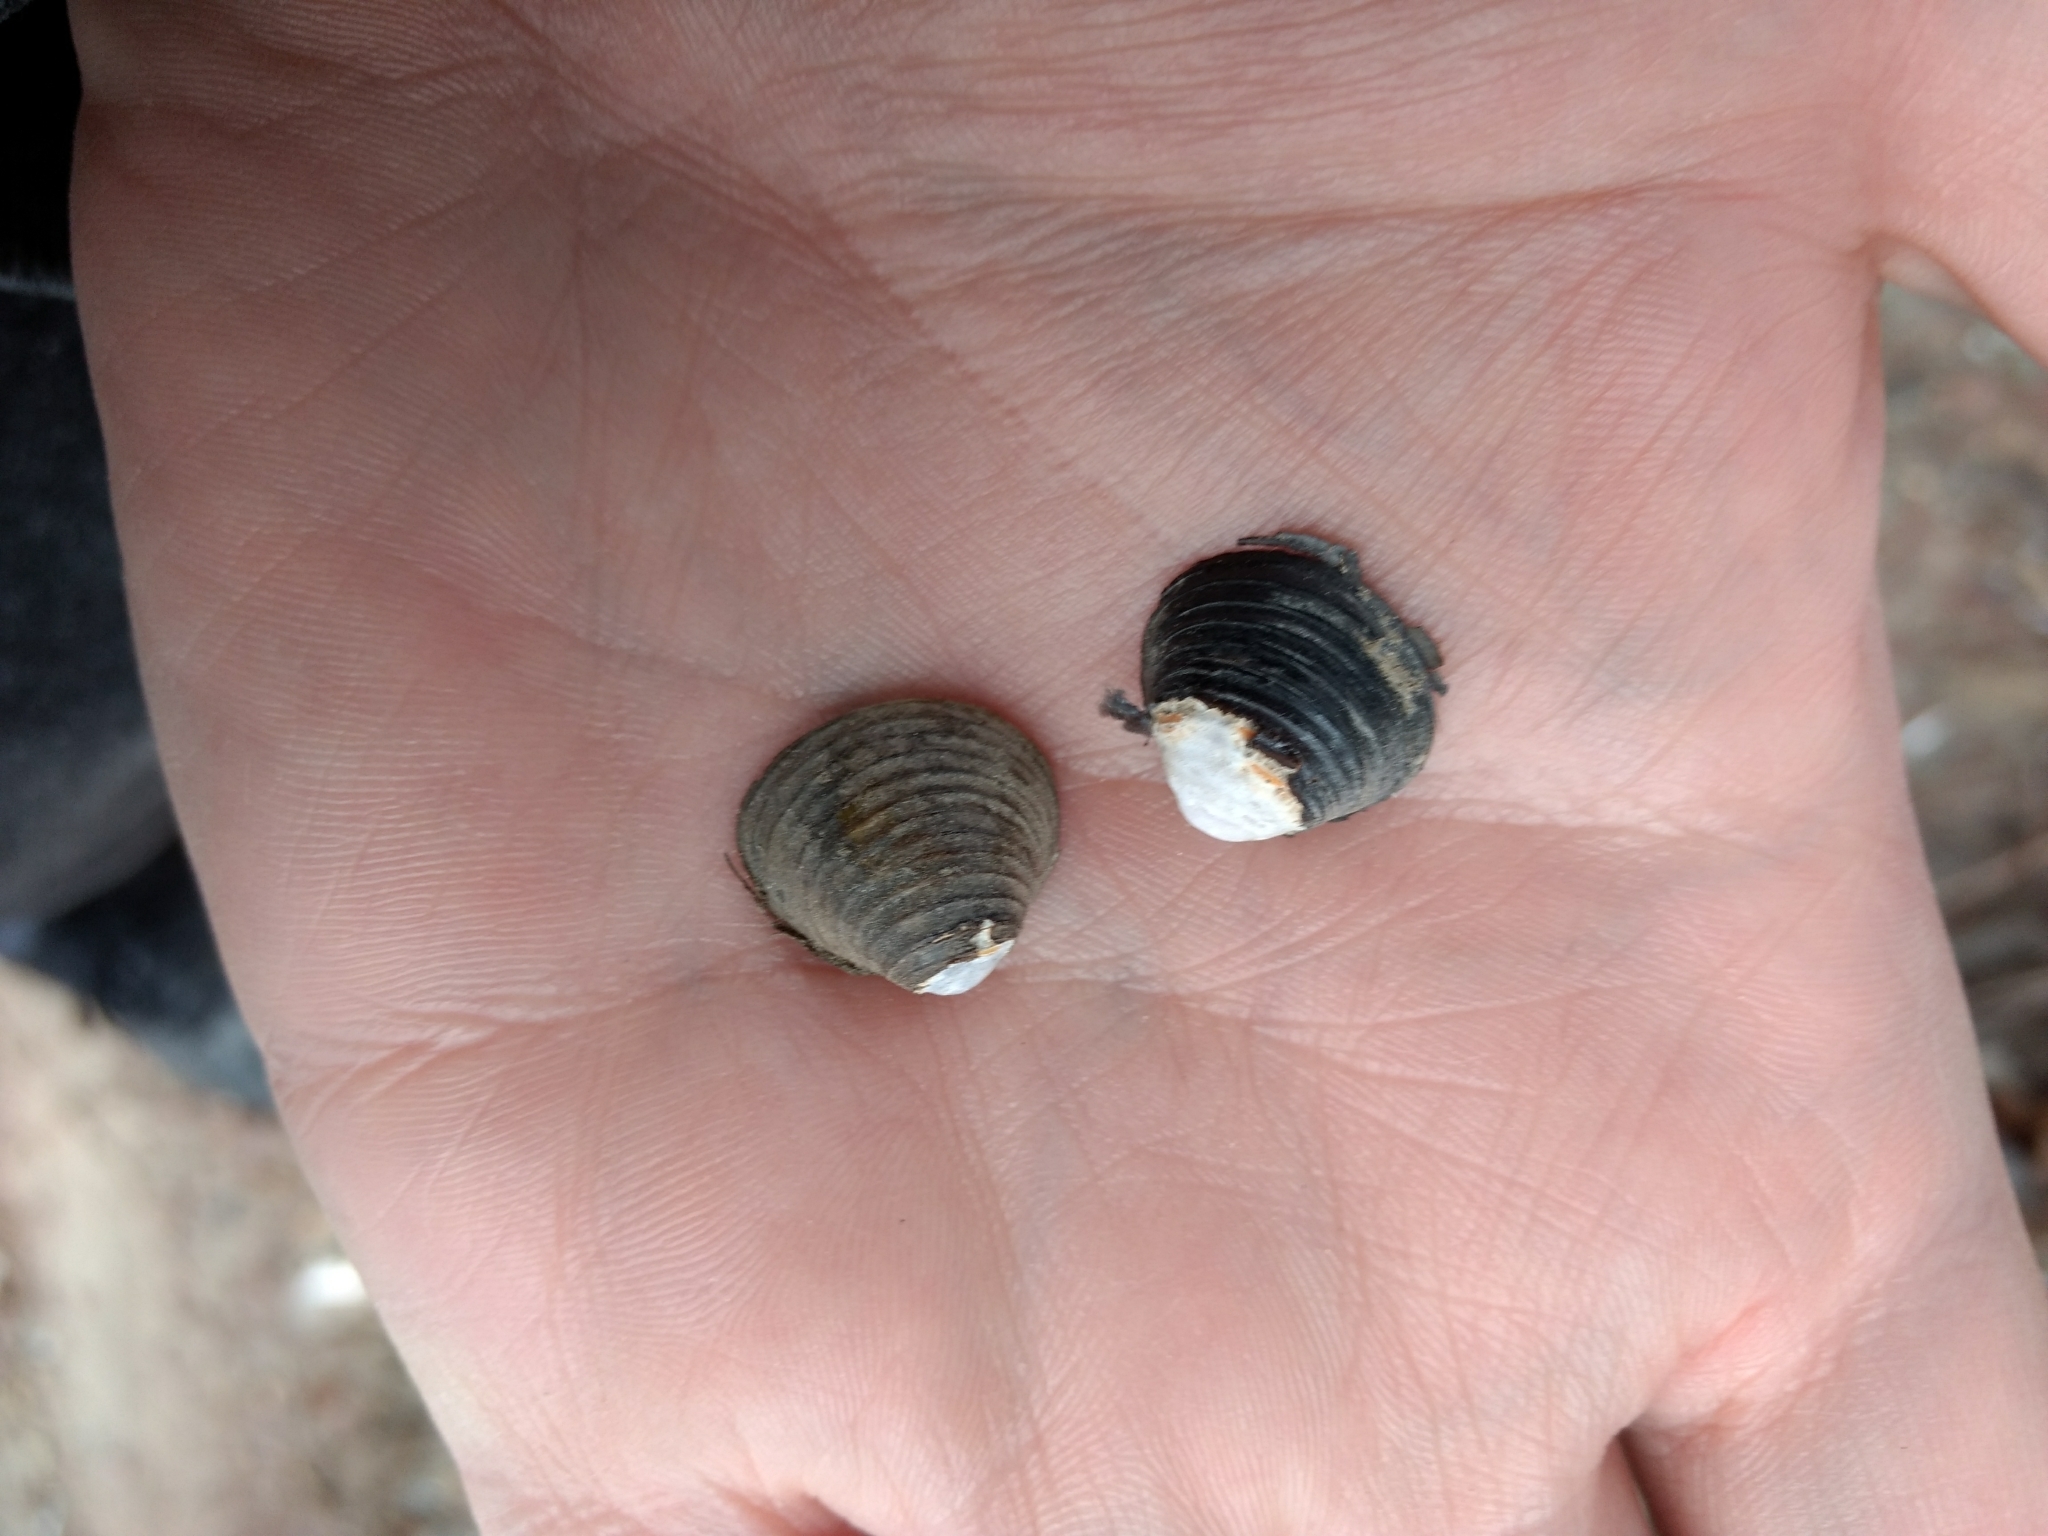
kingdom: Animalia
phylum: Mollusca
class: Bivalvia
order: Venerida
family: Cyrenidae
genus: Corbicula
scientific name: Corbicula fluminea
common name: Asian clam
